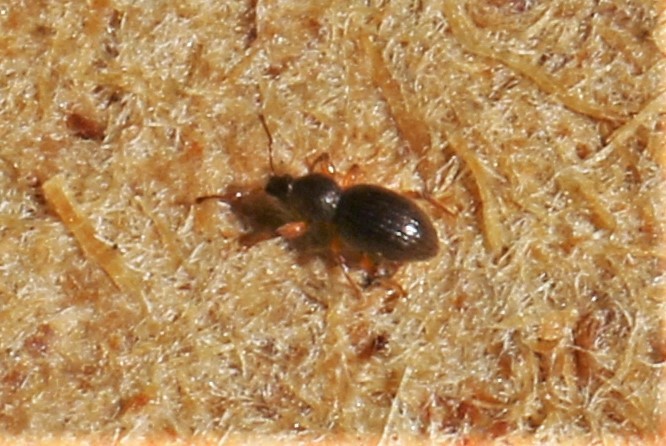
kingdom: Animalia
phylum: Arthropoda
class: Insecta
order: Coleoptera
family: Curculionidae
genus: Exomias
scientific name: Exomias pellucidus
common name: Hairy spider weevil
